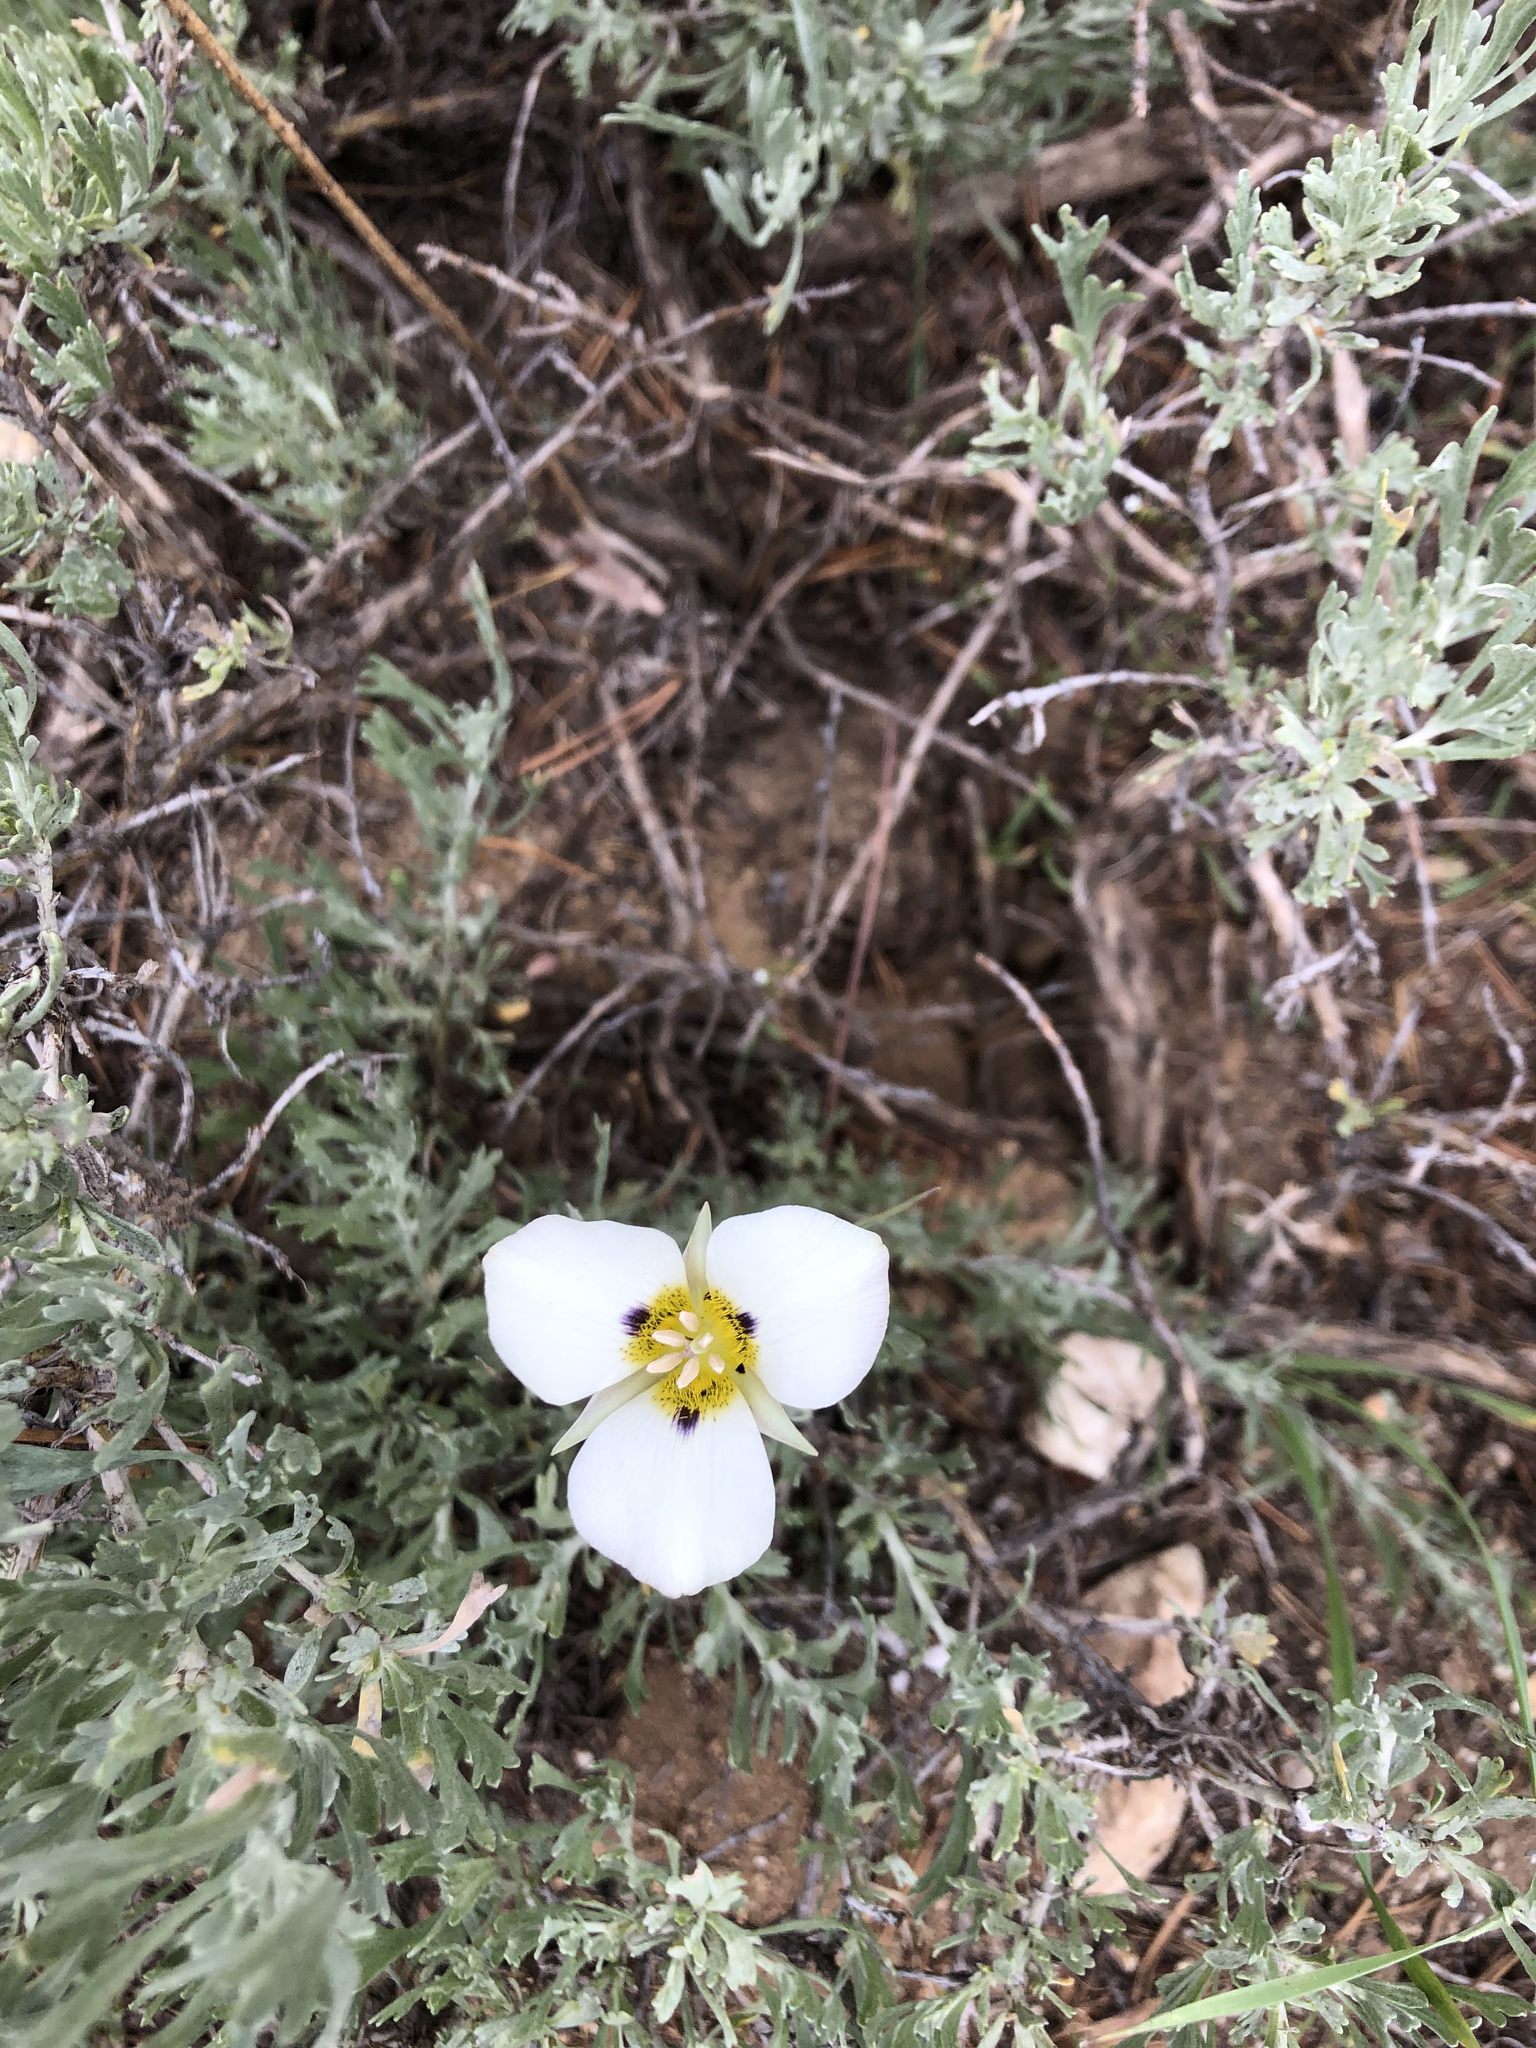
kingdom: Plantae
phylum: Tracheophyta
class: Liliopsida
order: Liliales
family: Liliaceae
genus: Calochortus
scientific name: Calochortus leichtlinii
